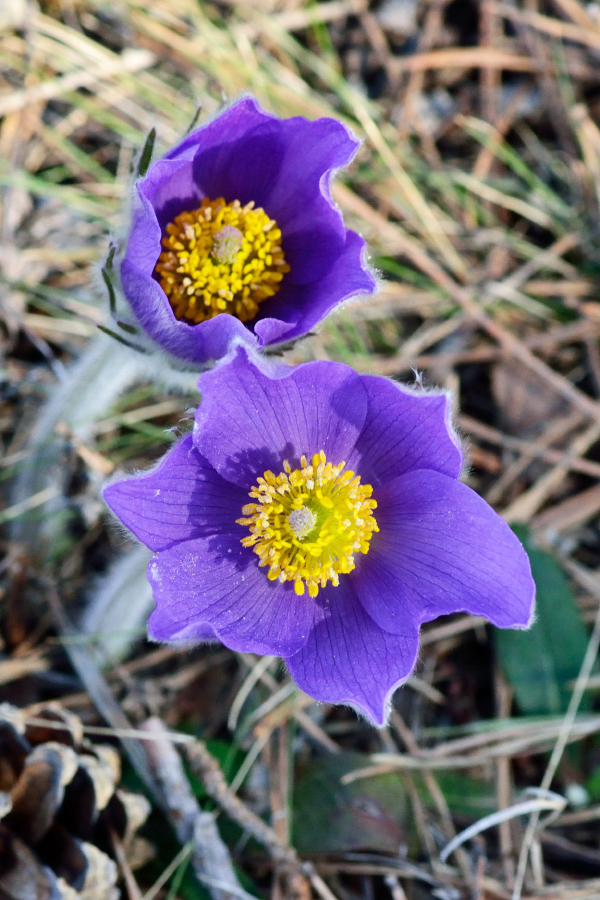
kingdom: Plantae
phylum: Tracheophyta
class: Magnoliopsida
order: Ranunculales
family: Ranunculaceae
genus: Pulsatilla
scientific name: Pulsatilla patens
